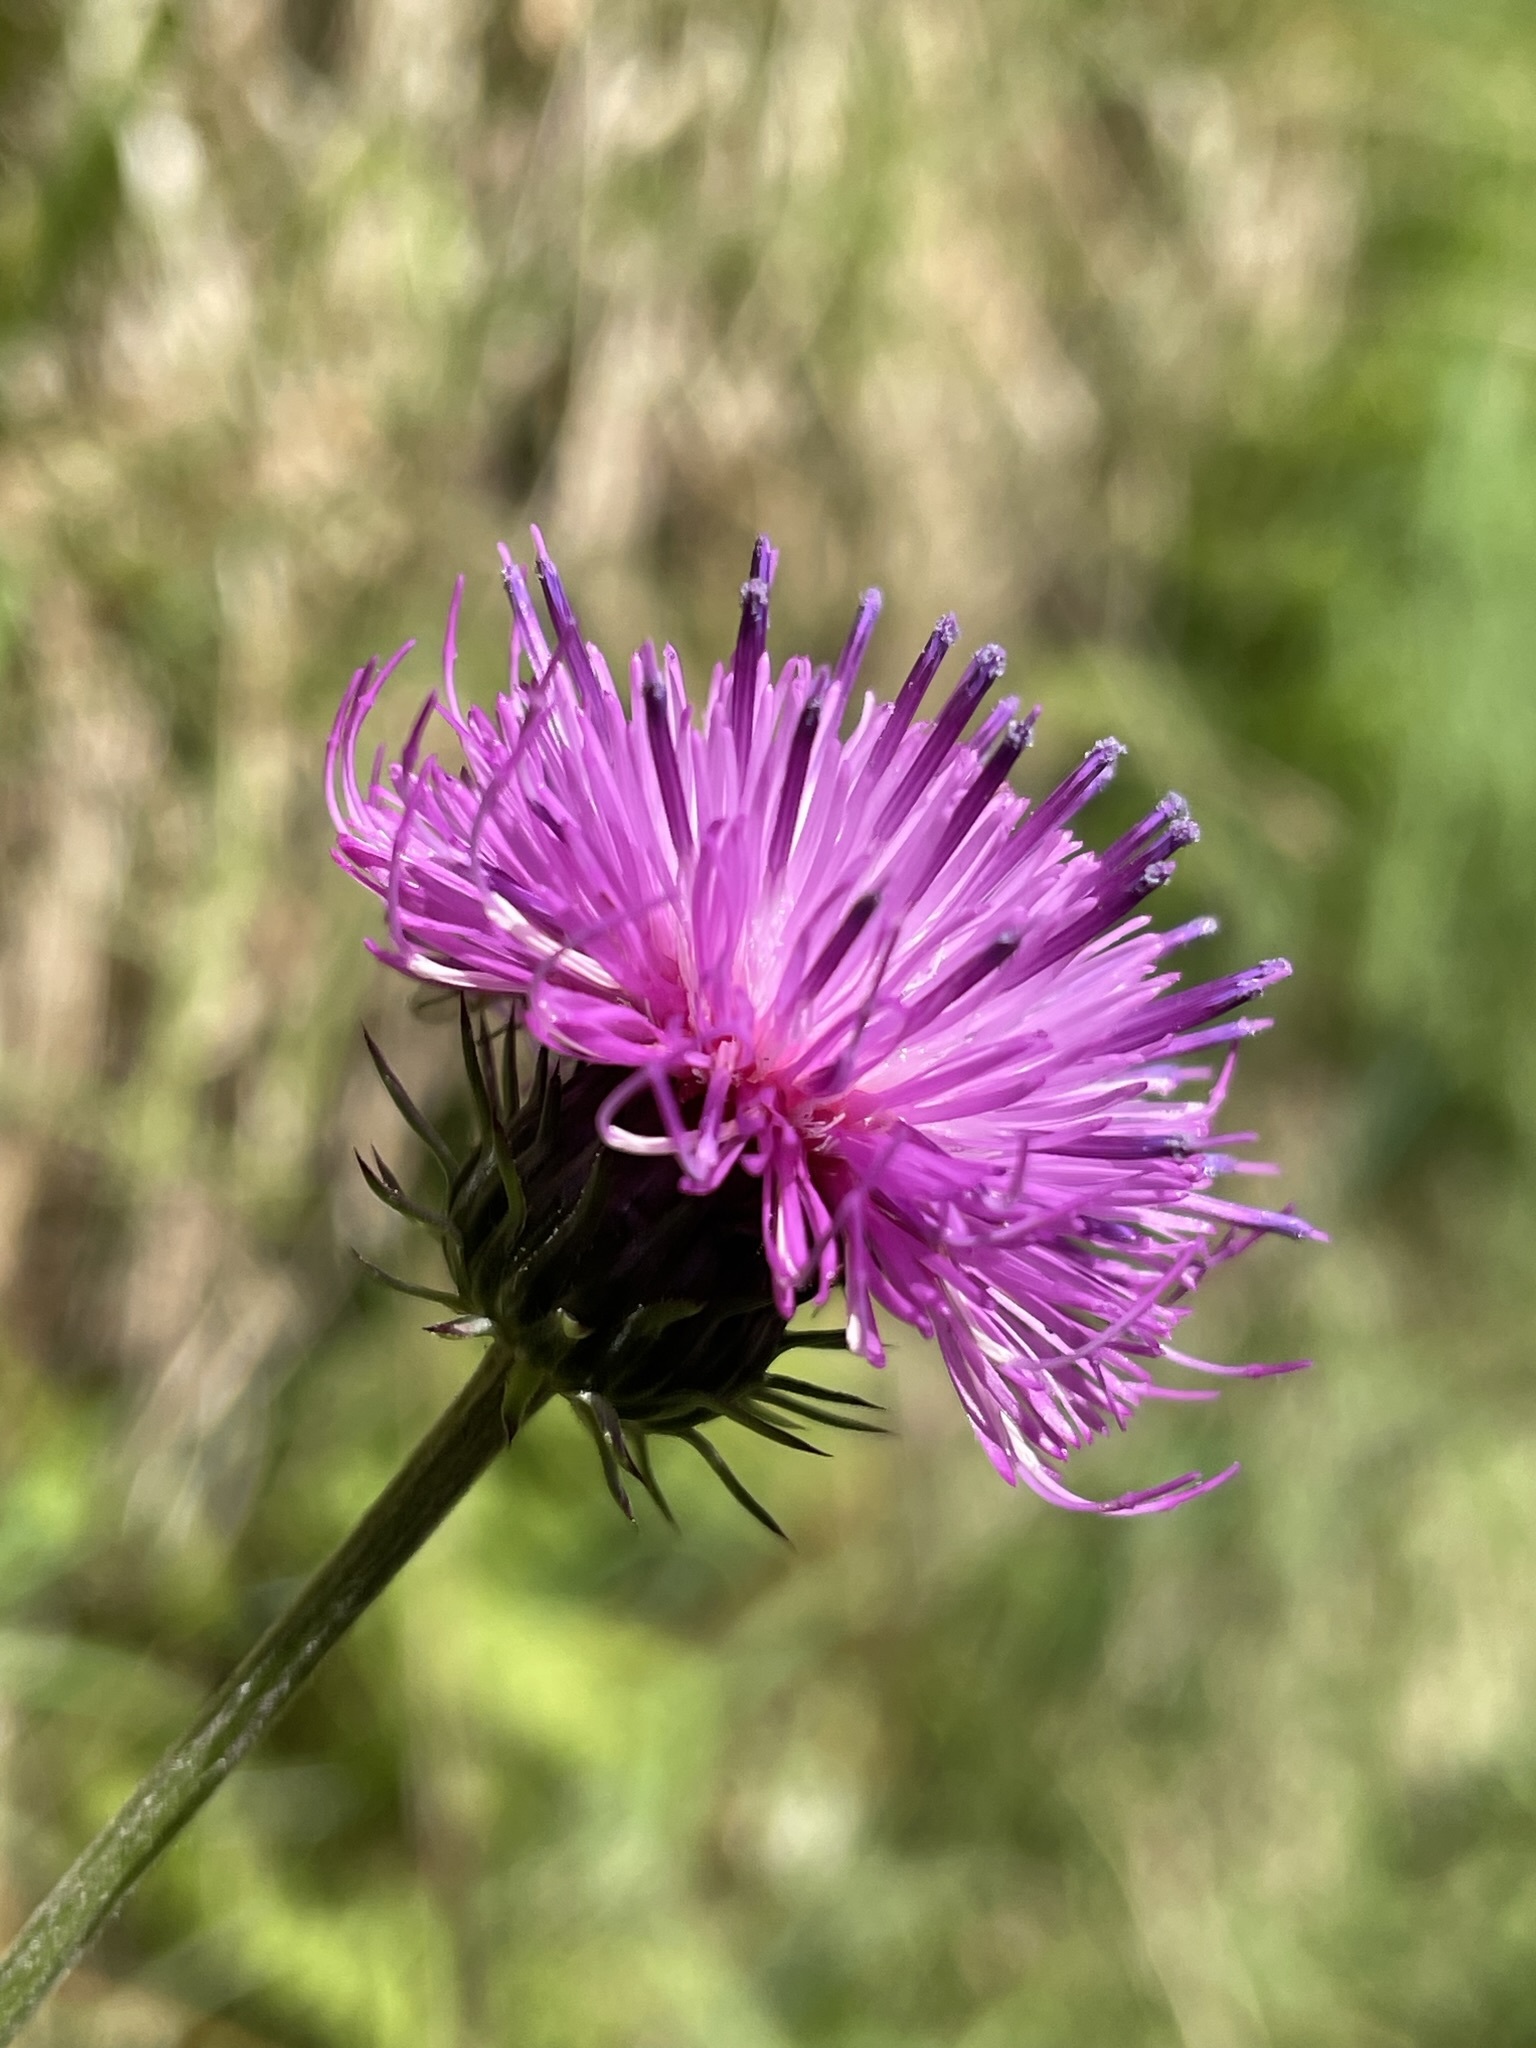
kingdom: Plantae
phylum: Tracheophyta
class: Magnoliopsida
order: Asterales
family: Asteraceae
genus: Carduus
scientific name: Carduus defloratus
